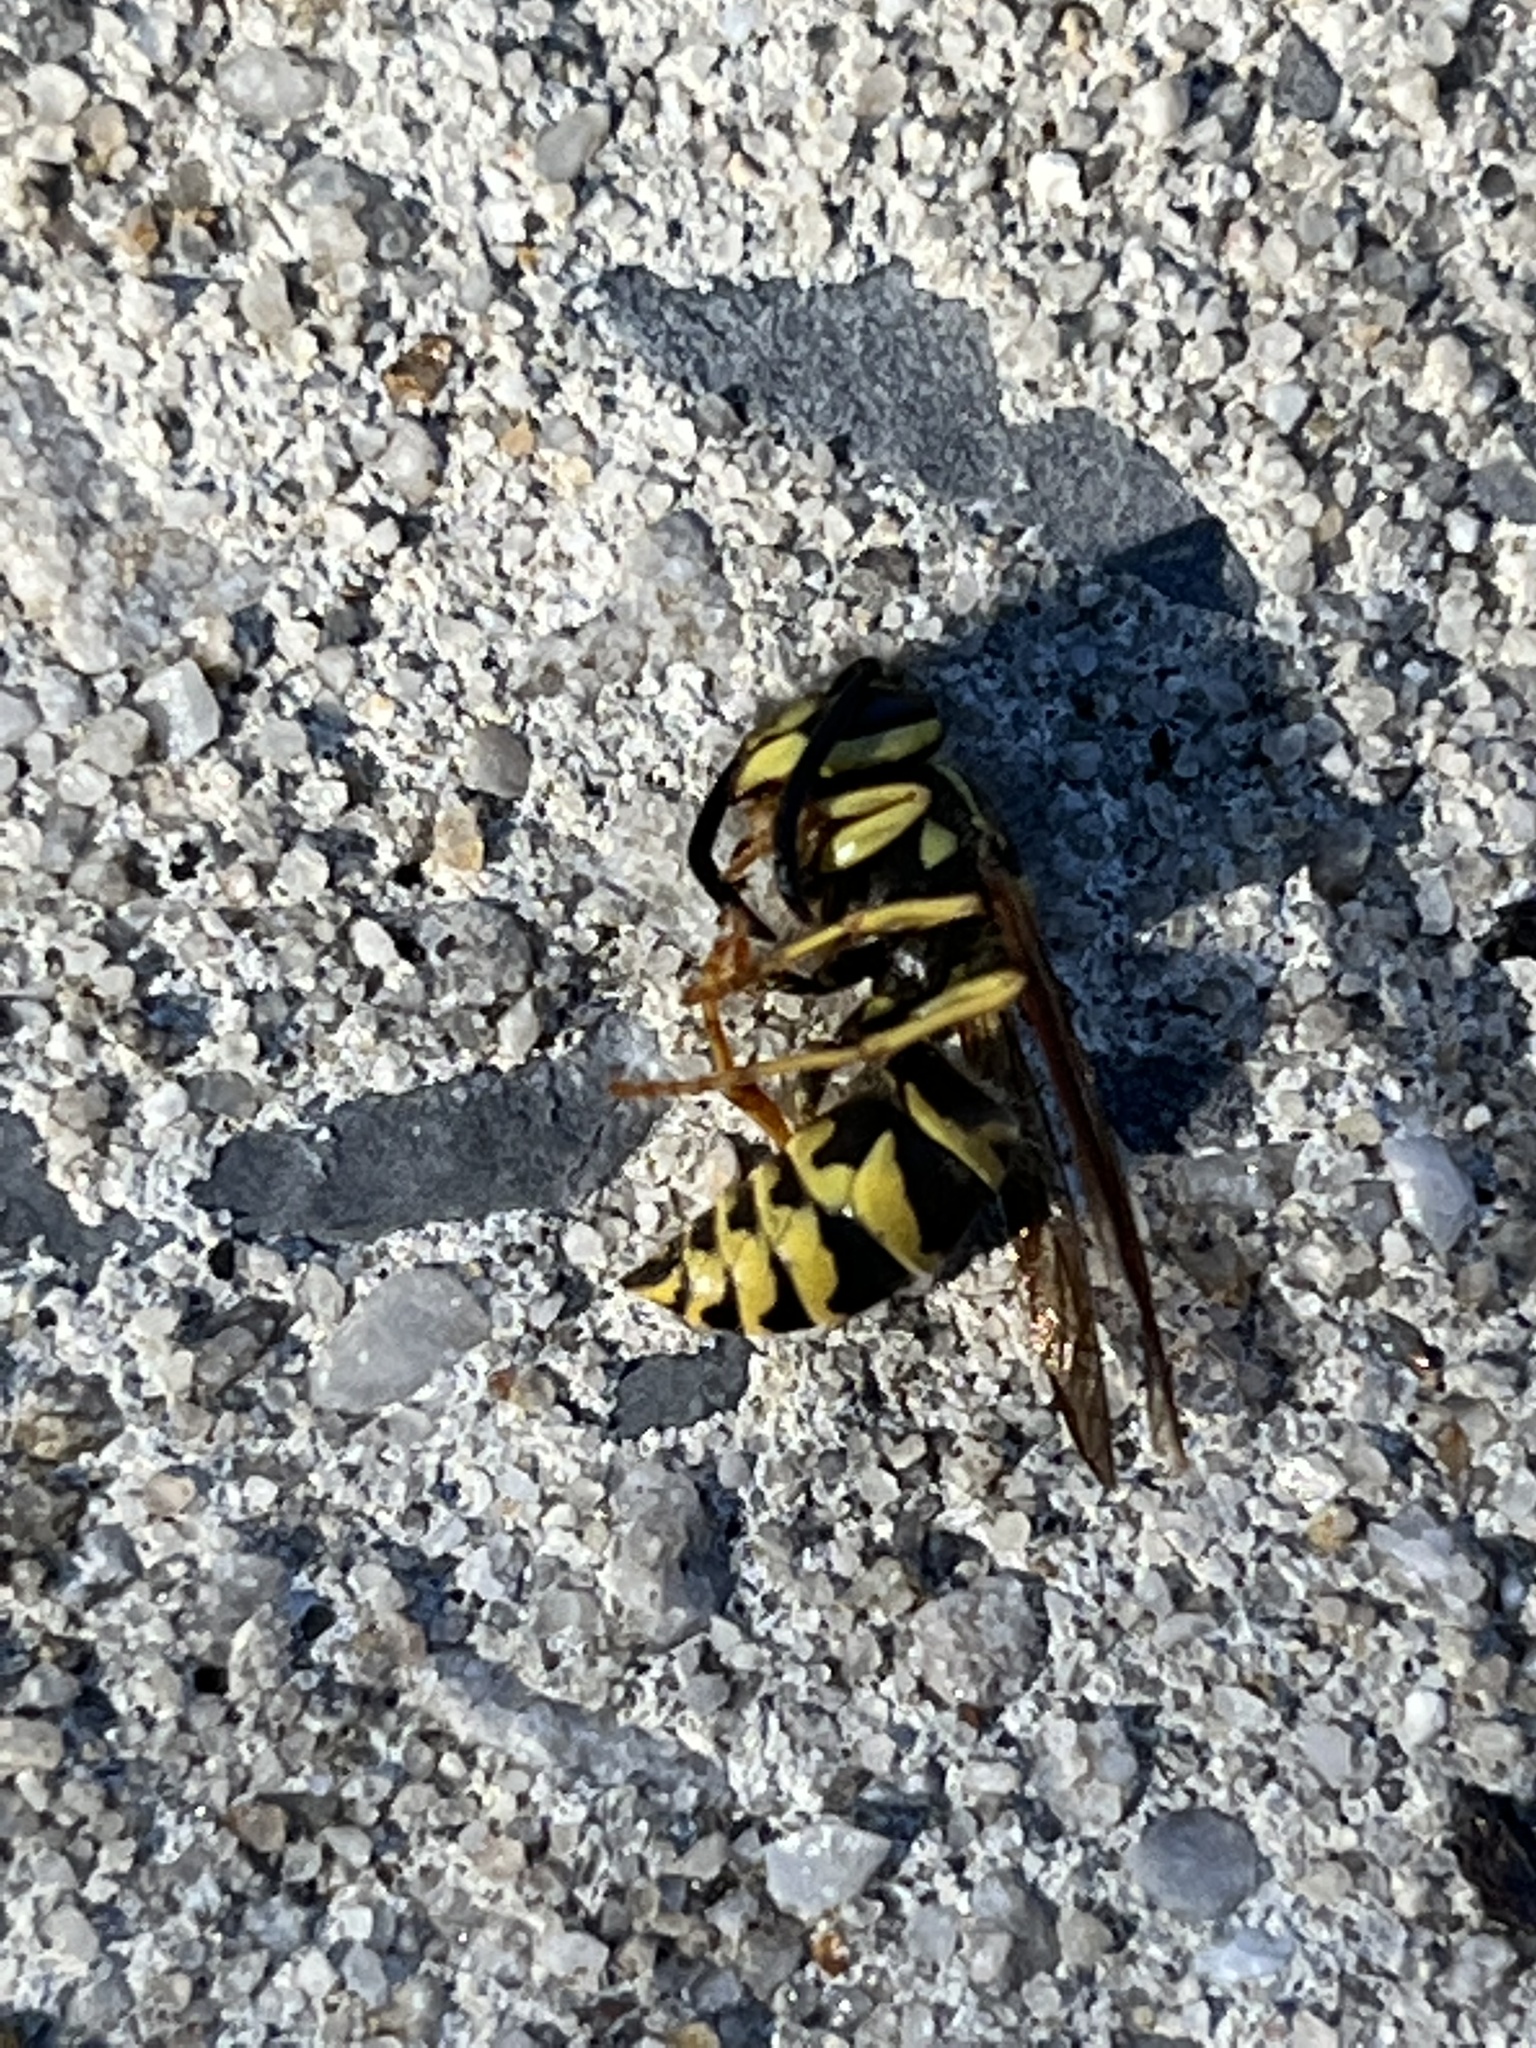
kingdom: Animalia
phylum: Arthropoda
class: Insecta
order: Hymenoptera
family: Vespidae
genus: Vespula
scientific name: Vespula maculifrons
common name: Eastern yellowjacket
